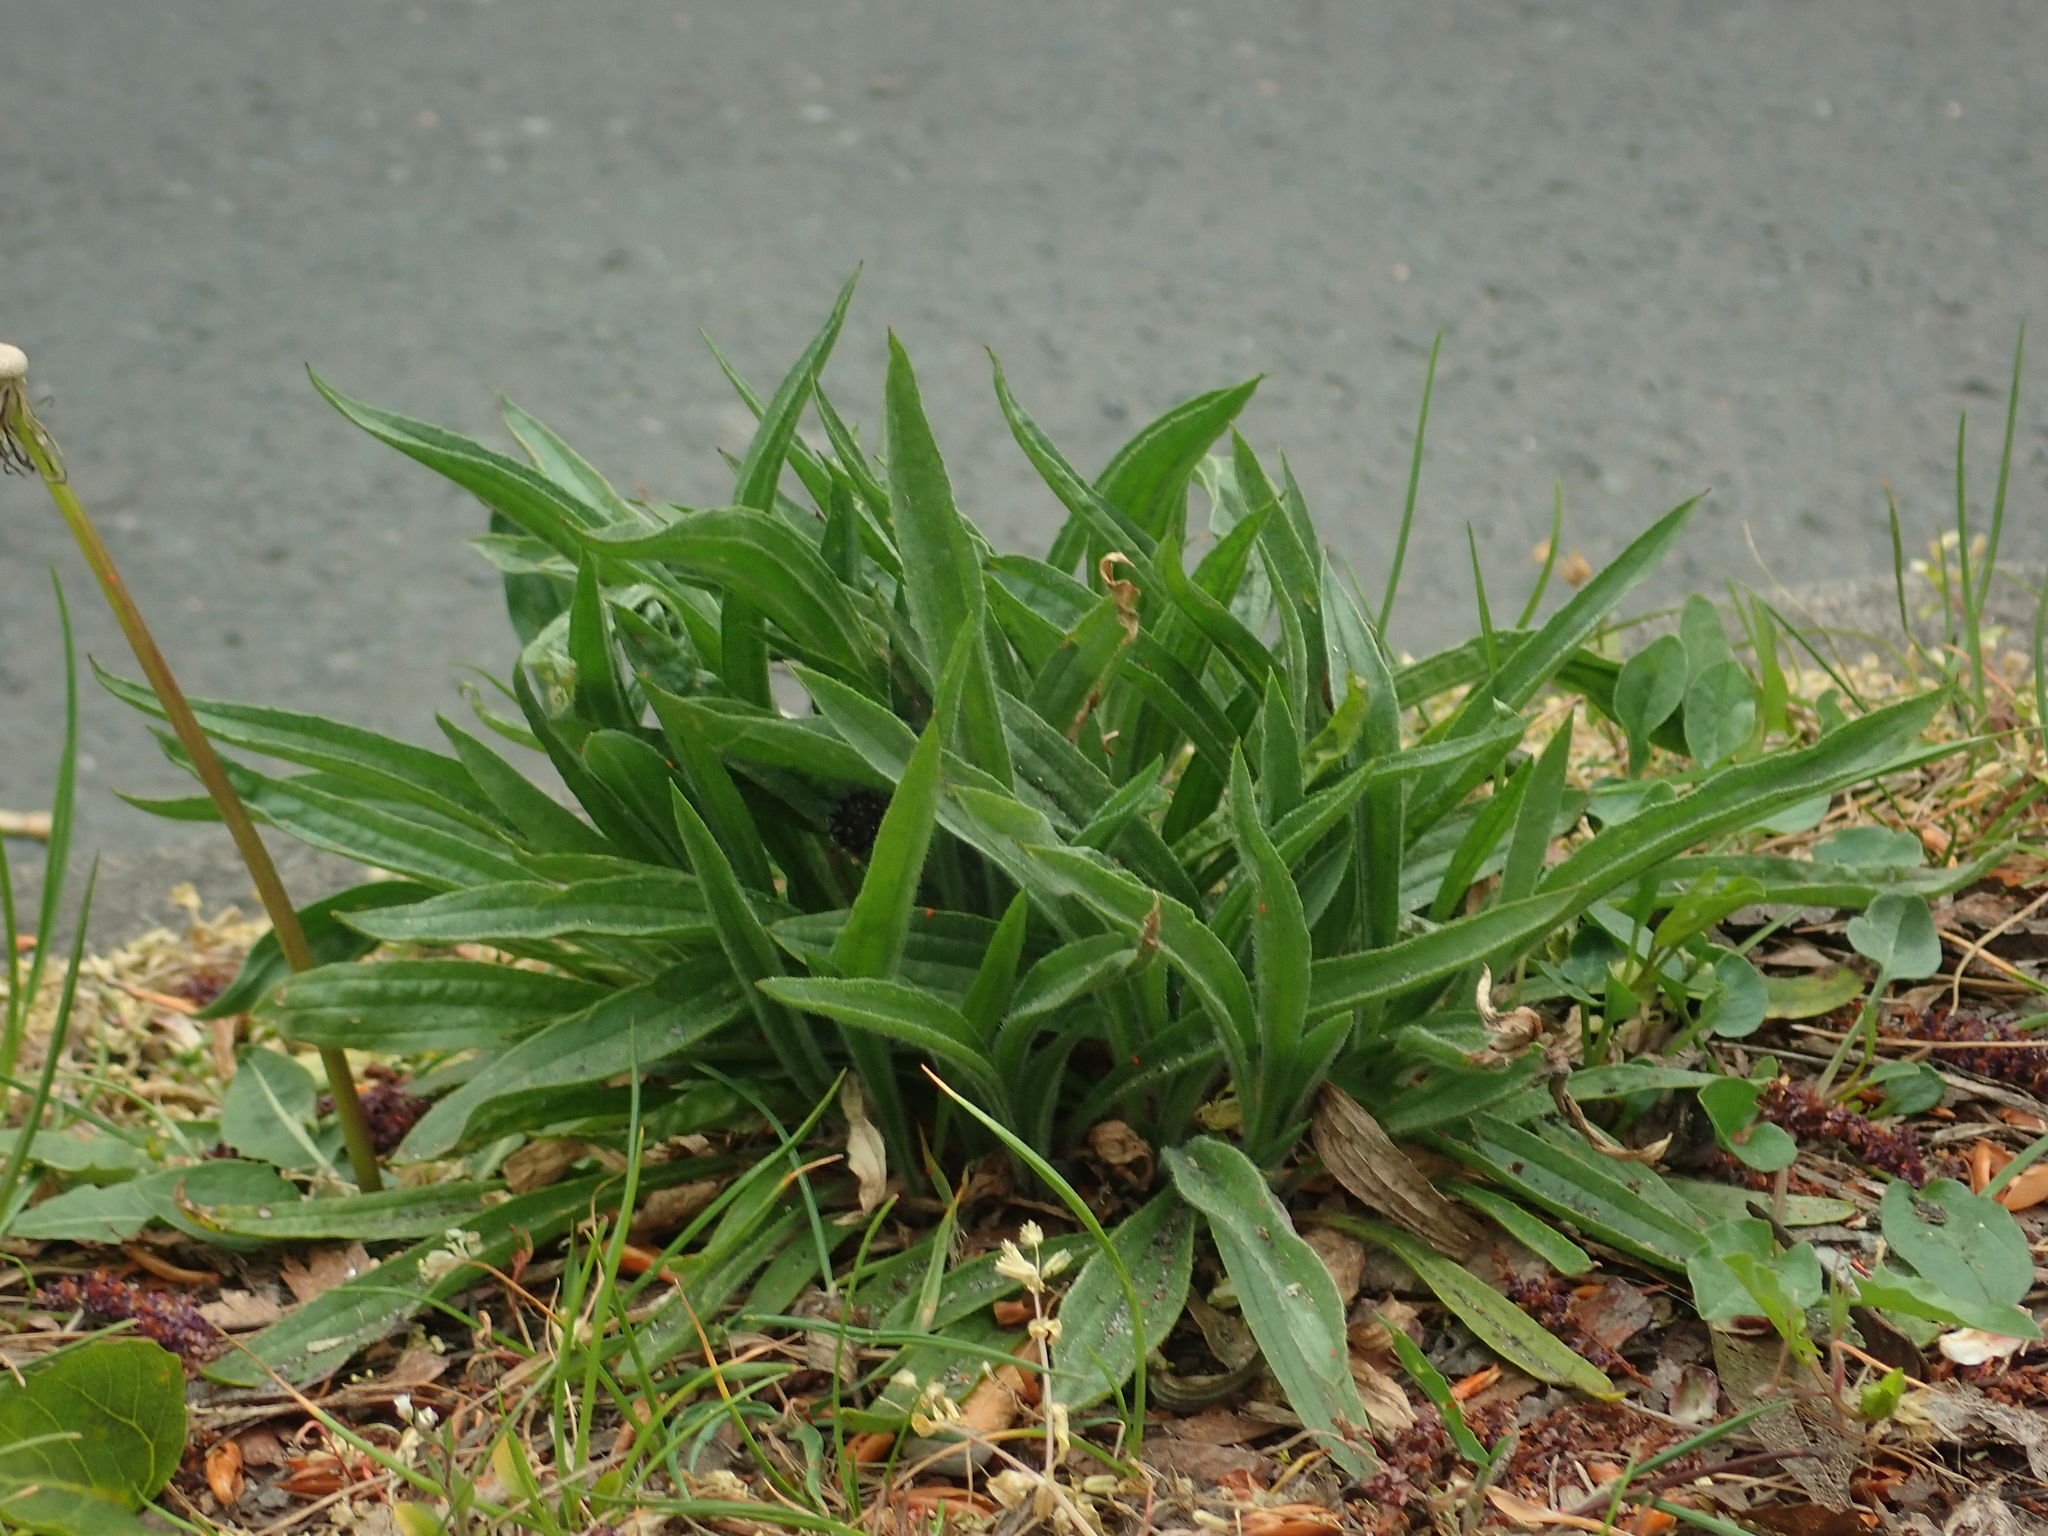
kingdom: Plantae
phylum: Tracheophyta
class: Magnoliopsida
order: Lamiales
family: Plantaginaceae
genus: Plantago
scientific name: Plantago lanceolata
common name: Ribwort plantain
